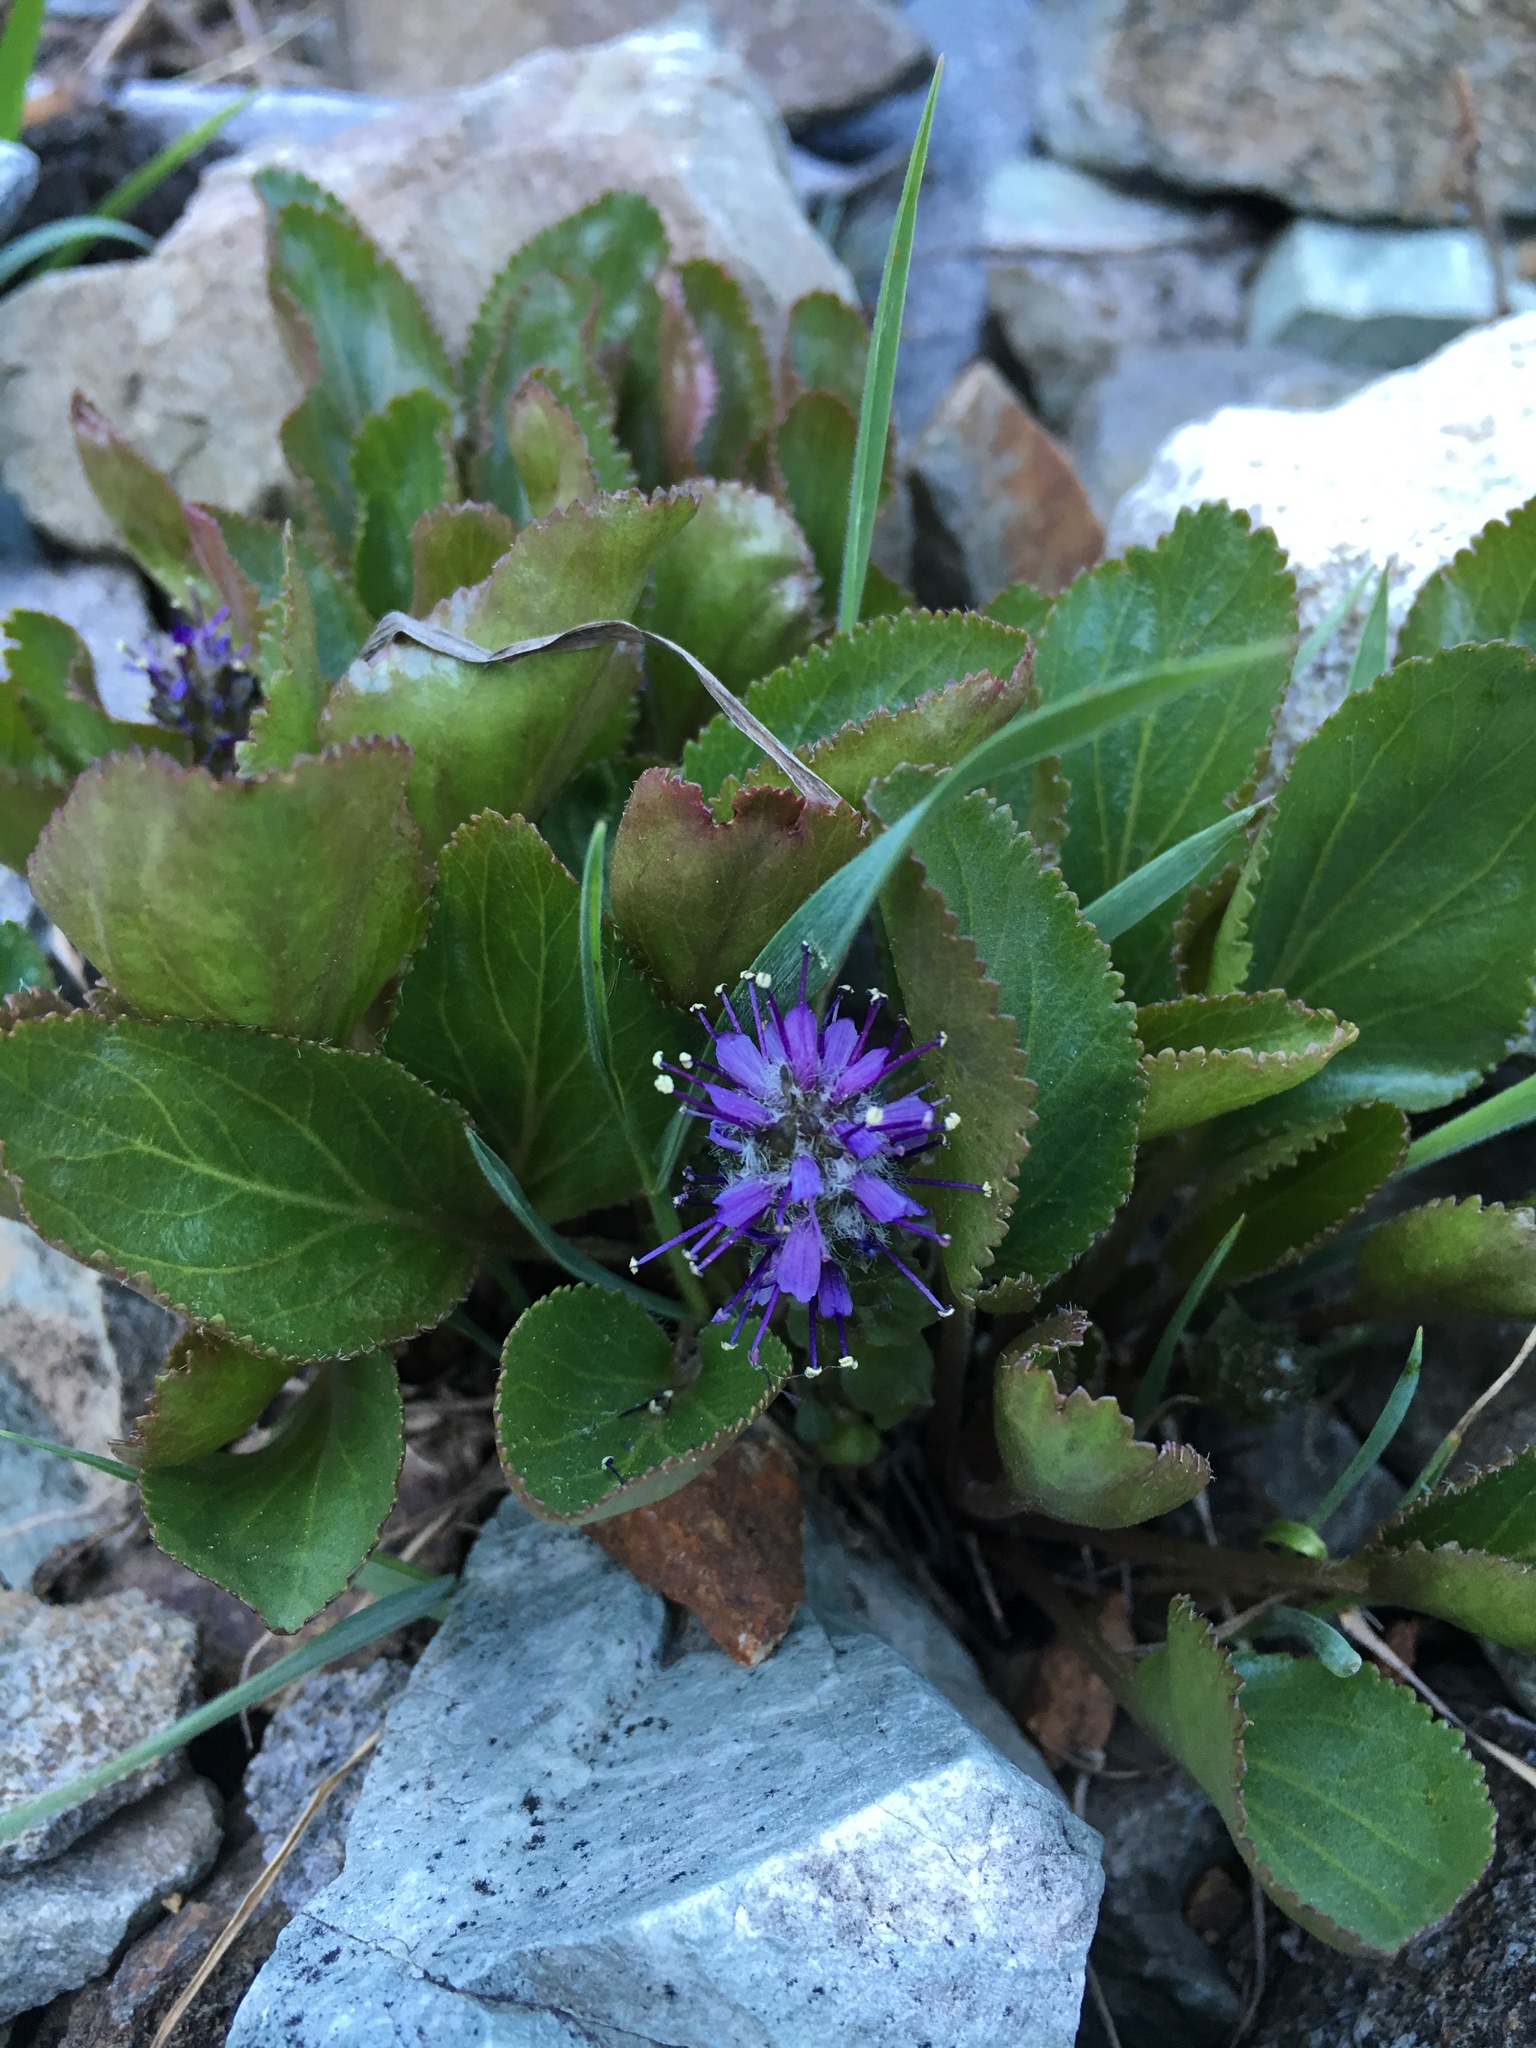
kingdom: Plantae
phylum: Tracheophyta
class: Magnoliopsida
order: Lamiales
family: Plantaginaceae
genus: Synthyris
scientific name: Synthyris alpina
